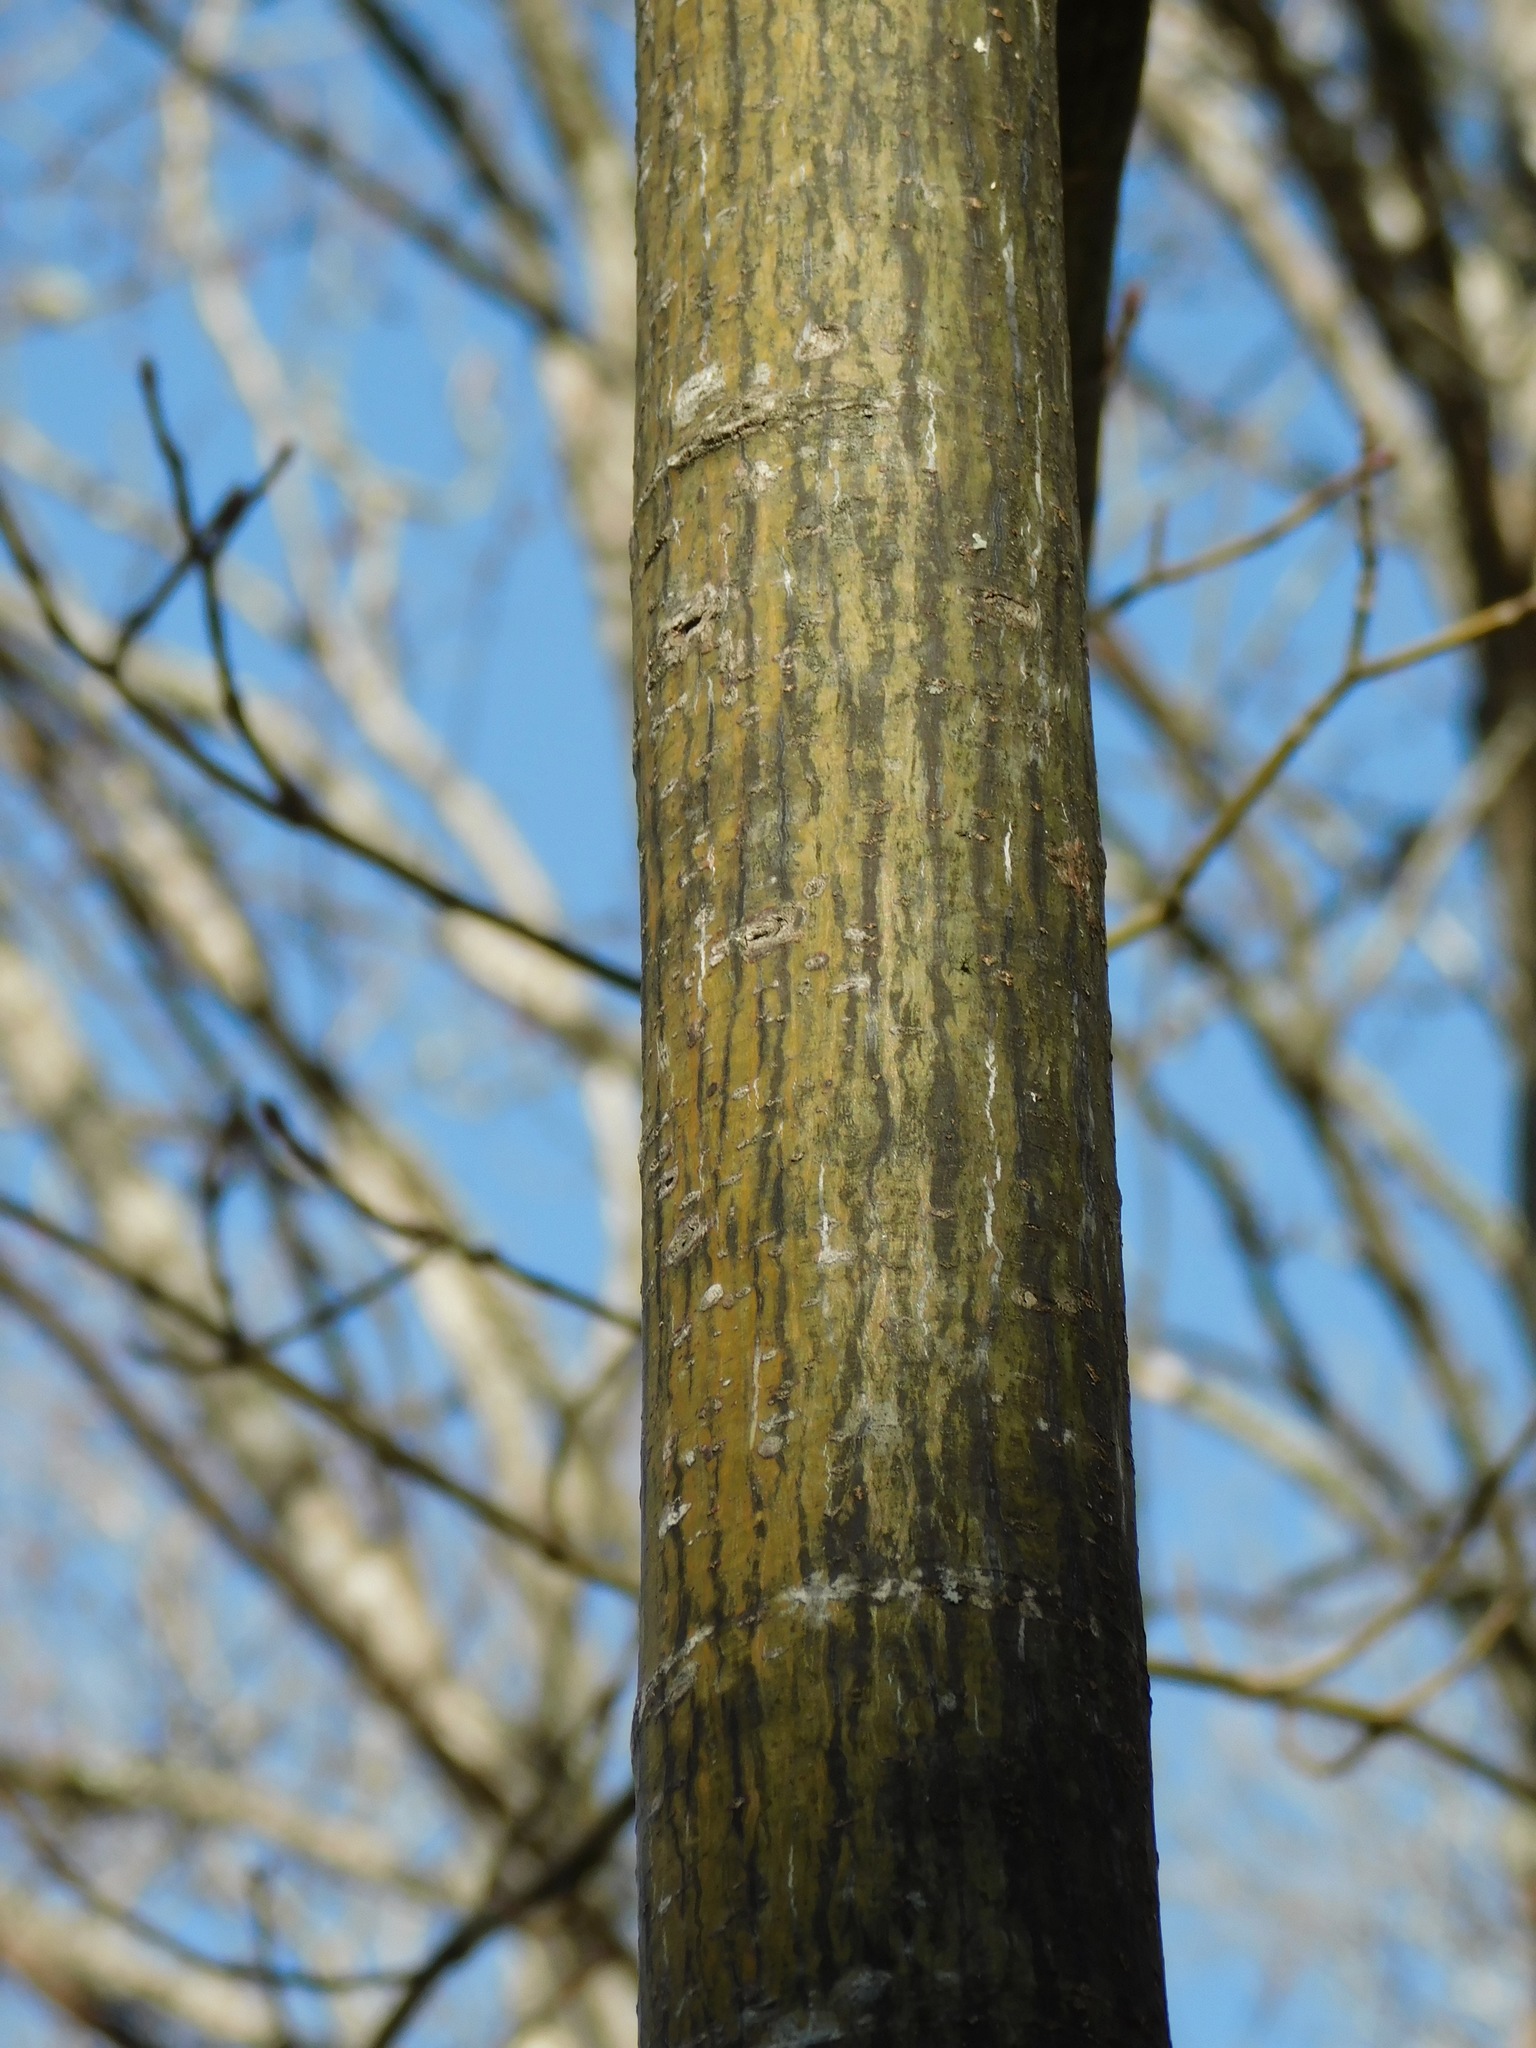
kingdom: Plantae
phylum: Tracheophyta
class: Magnoliopsida
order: Sapindales
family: Sapindaceae
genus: Acer
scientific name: Acer pensylvanicum
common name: Moosewood
